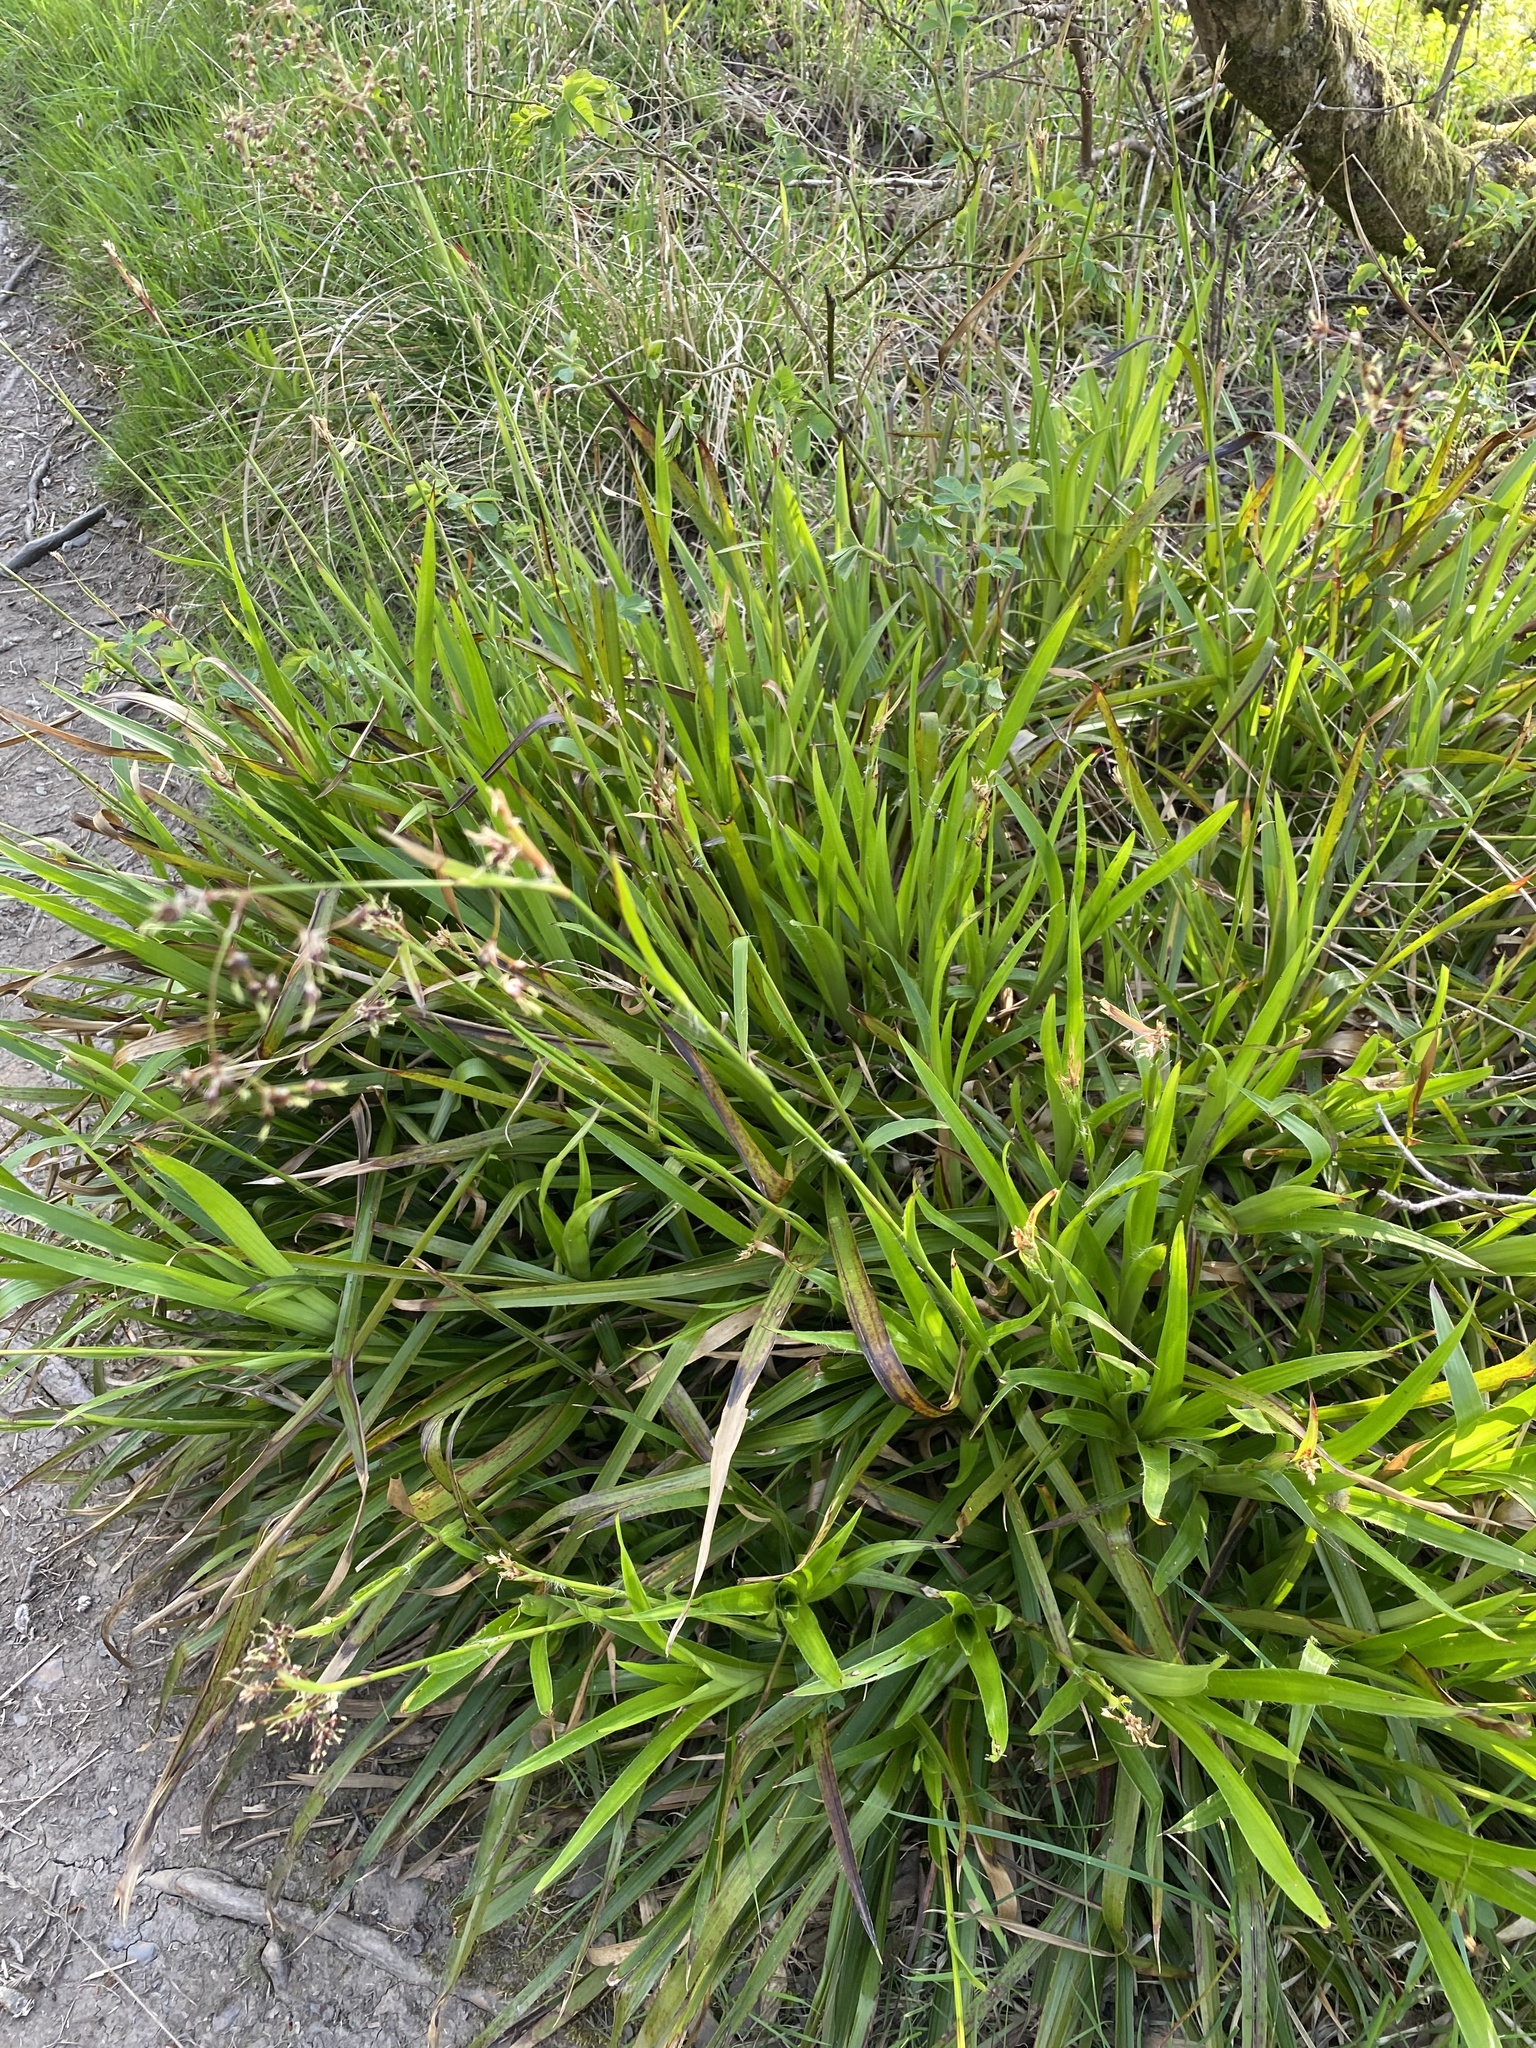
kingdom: Plantae
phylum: Tracheophyta
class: Liliopsida
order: Poales
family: Juncaceae
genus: Luzula
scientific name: Luzula sylvatica
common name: Great wood-rush
